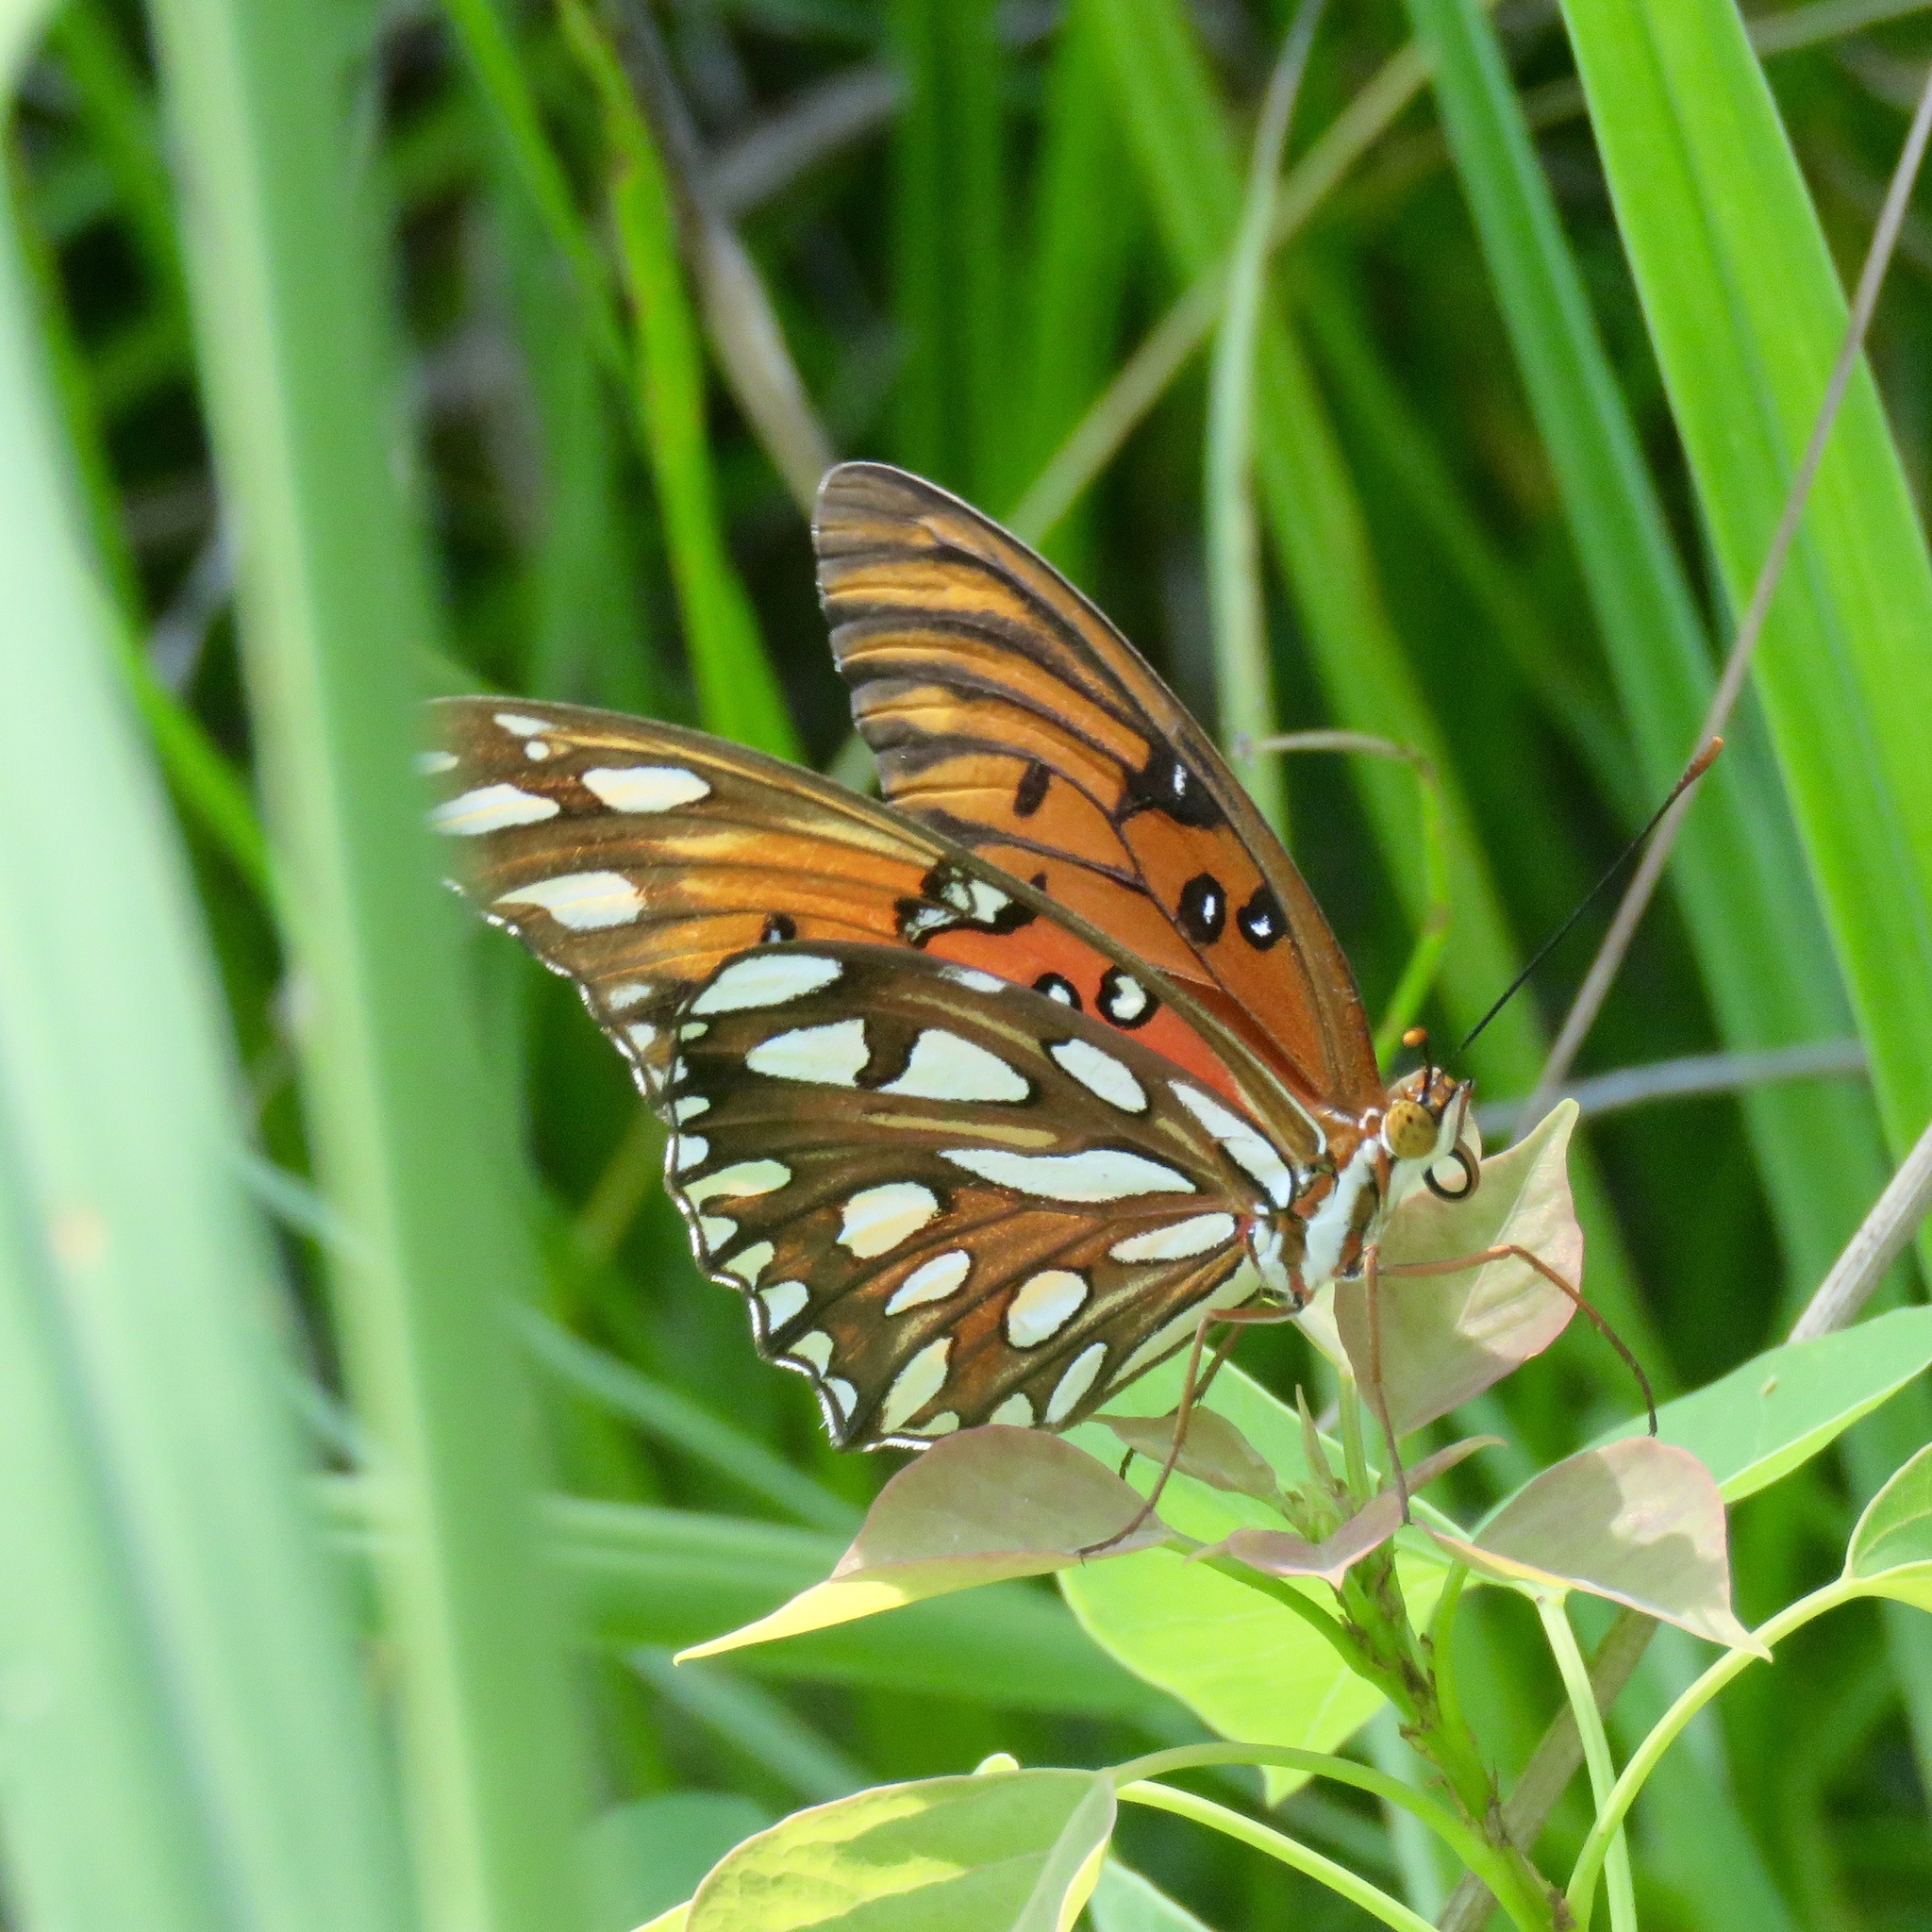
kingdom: Animalia
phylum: Arthropoda
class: Insecta
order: Lepidoptera
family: Nymphalidae
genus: Dione
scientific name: Dione vanillae
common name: Gulf fritillary
